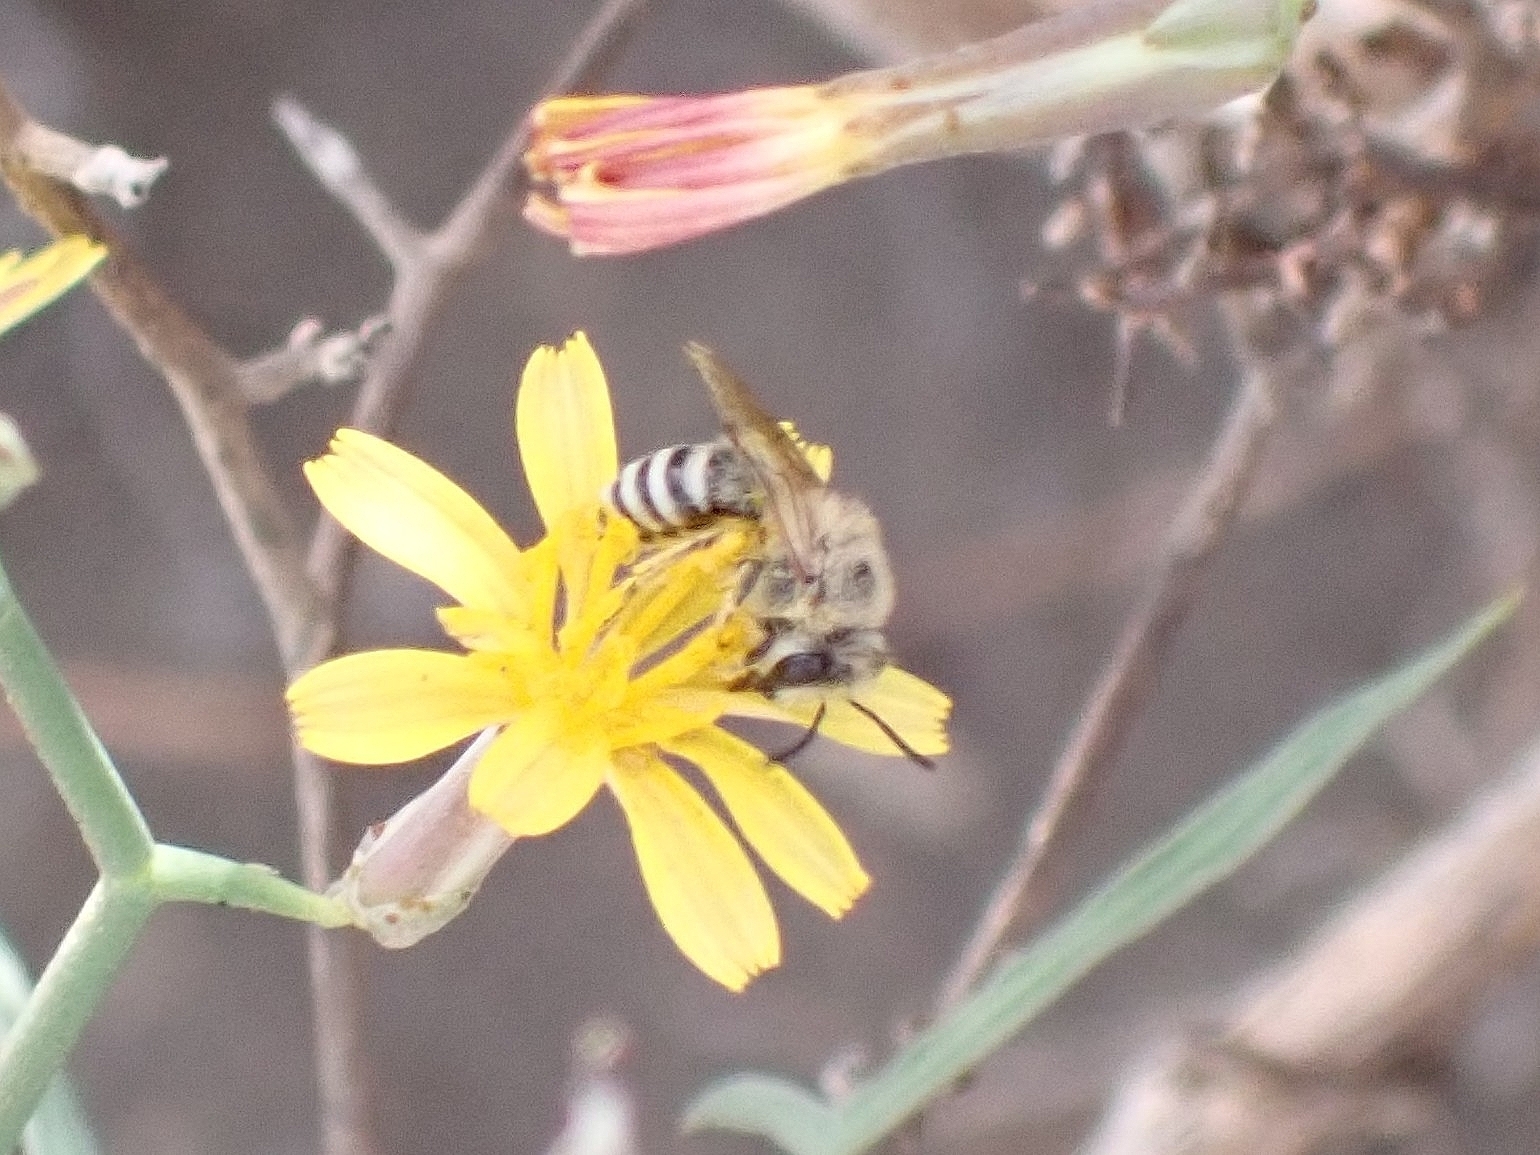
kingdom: Animalia
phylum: Arthropoda
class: Insecta
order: Hymenoptera
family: Colletidae
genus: Colletes
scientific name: Colletes moricei
